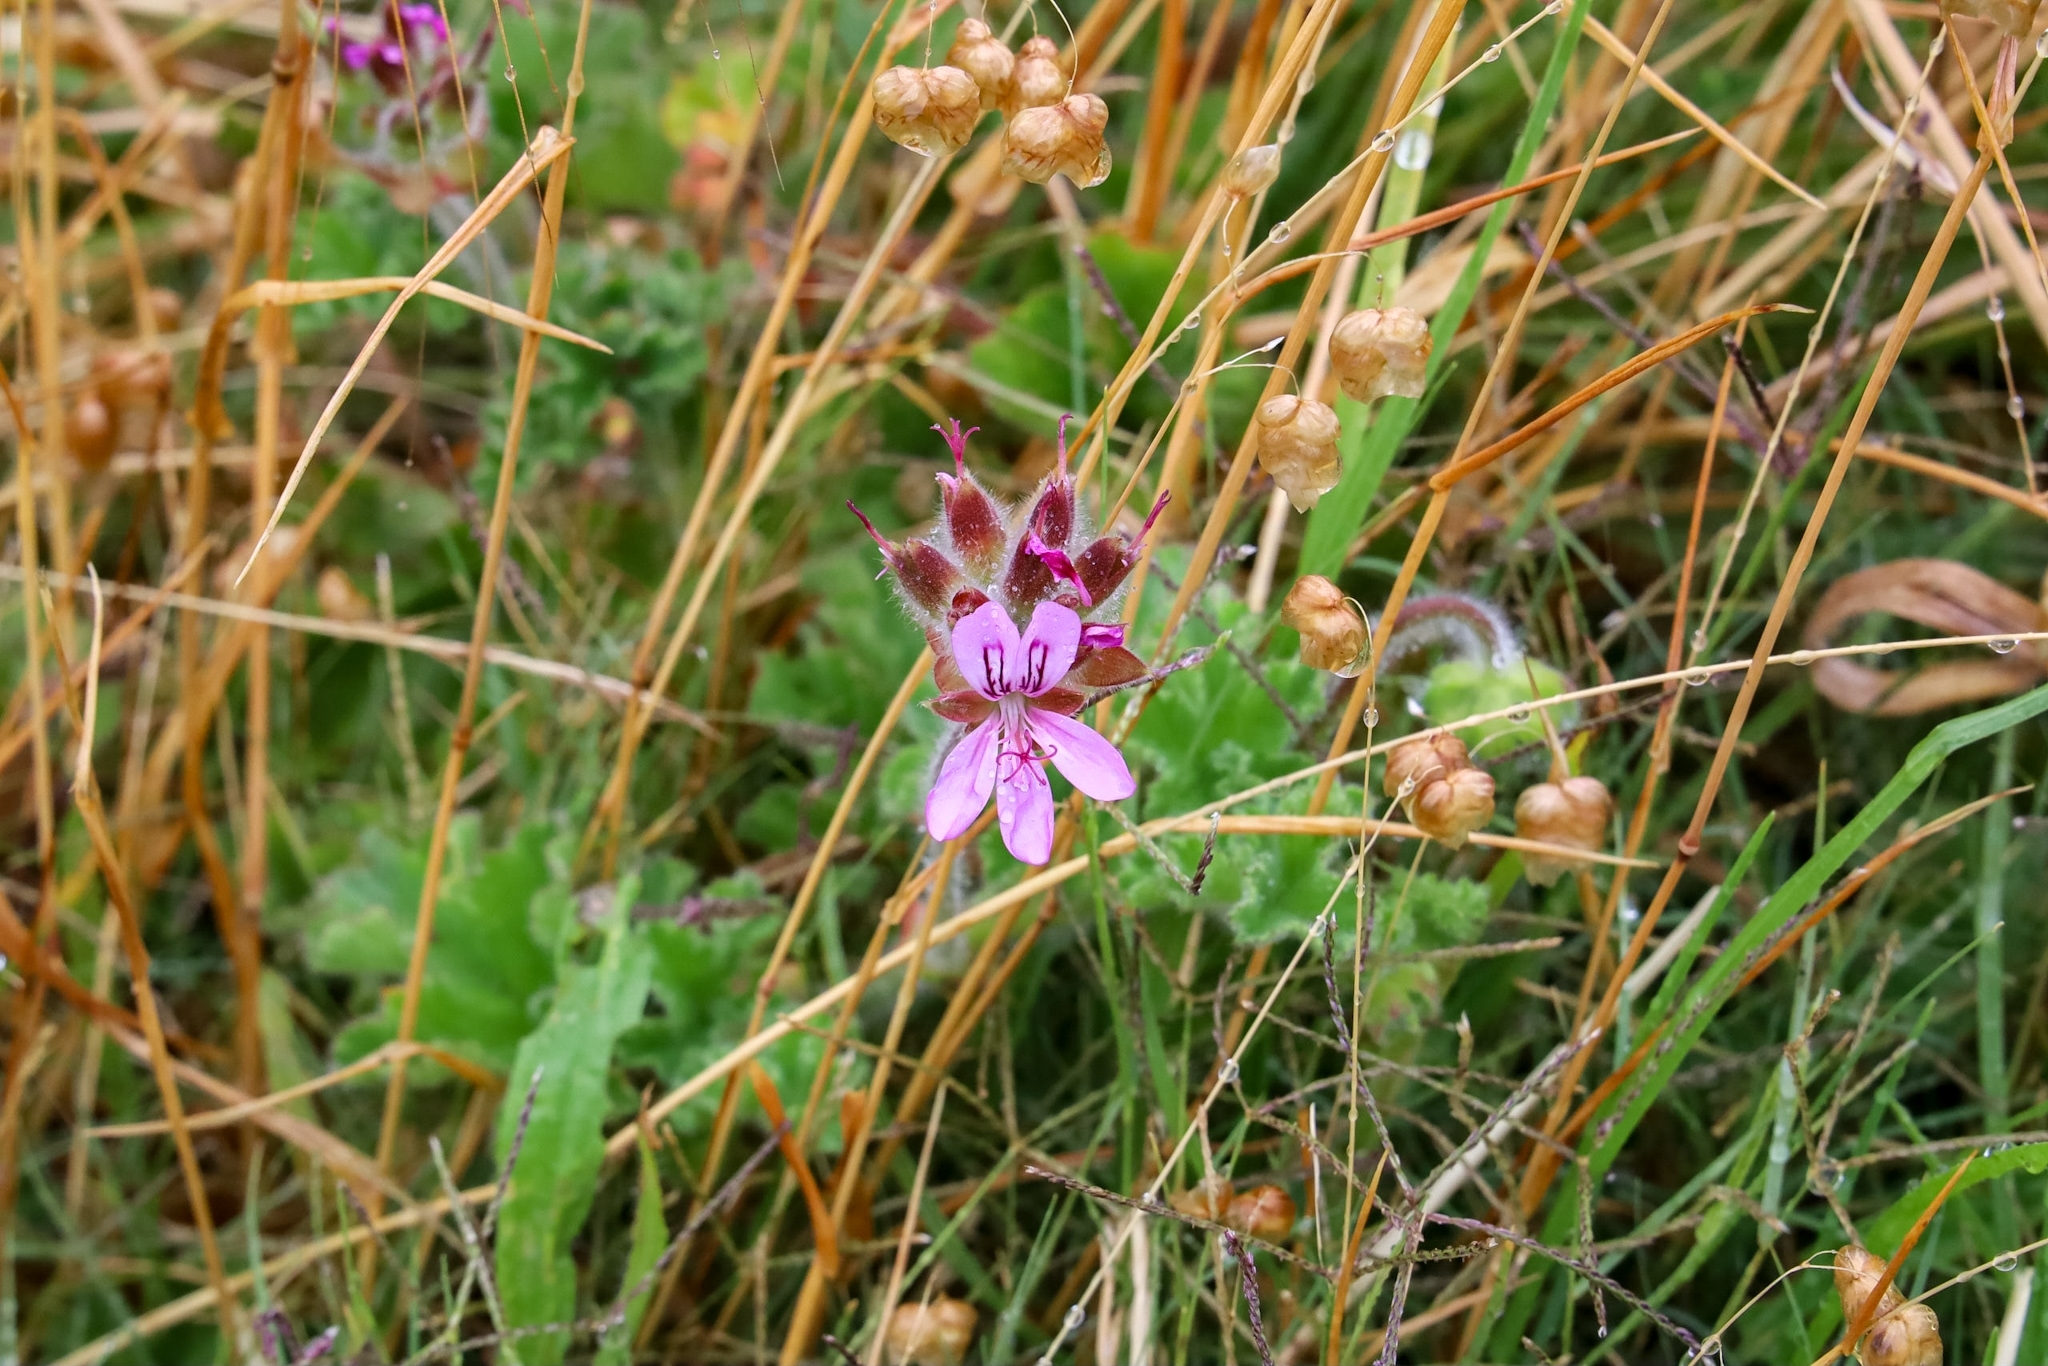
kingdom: Plantae
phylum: Tracheophyta
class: Magnoliopsida
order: Geraniales
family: Geraniaceae
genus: Pelargonium
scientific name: Pelargonium capitatum
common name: Rose scented geranium
